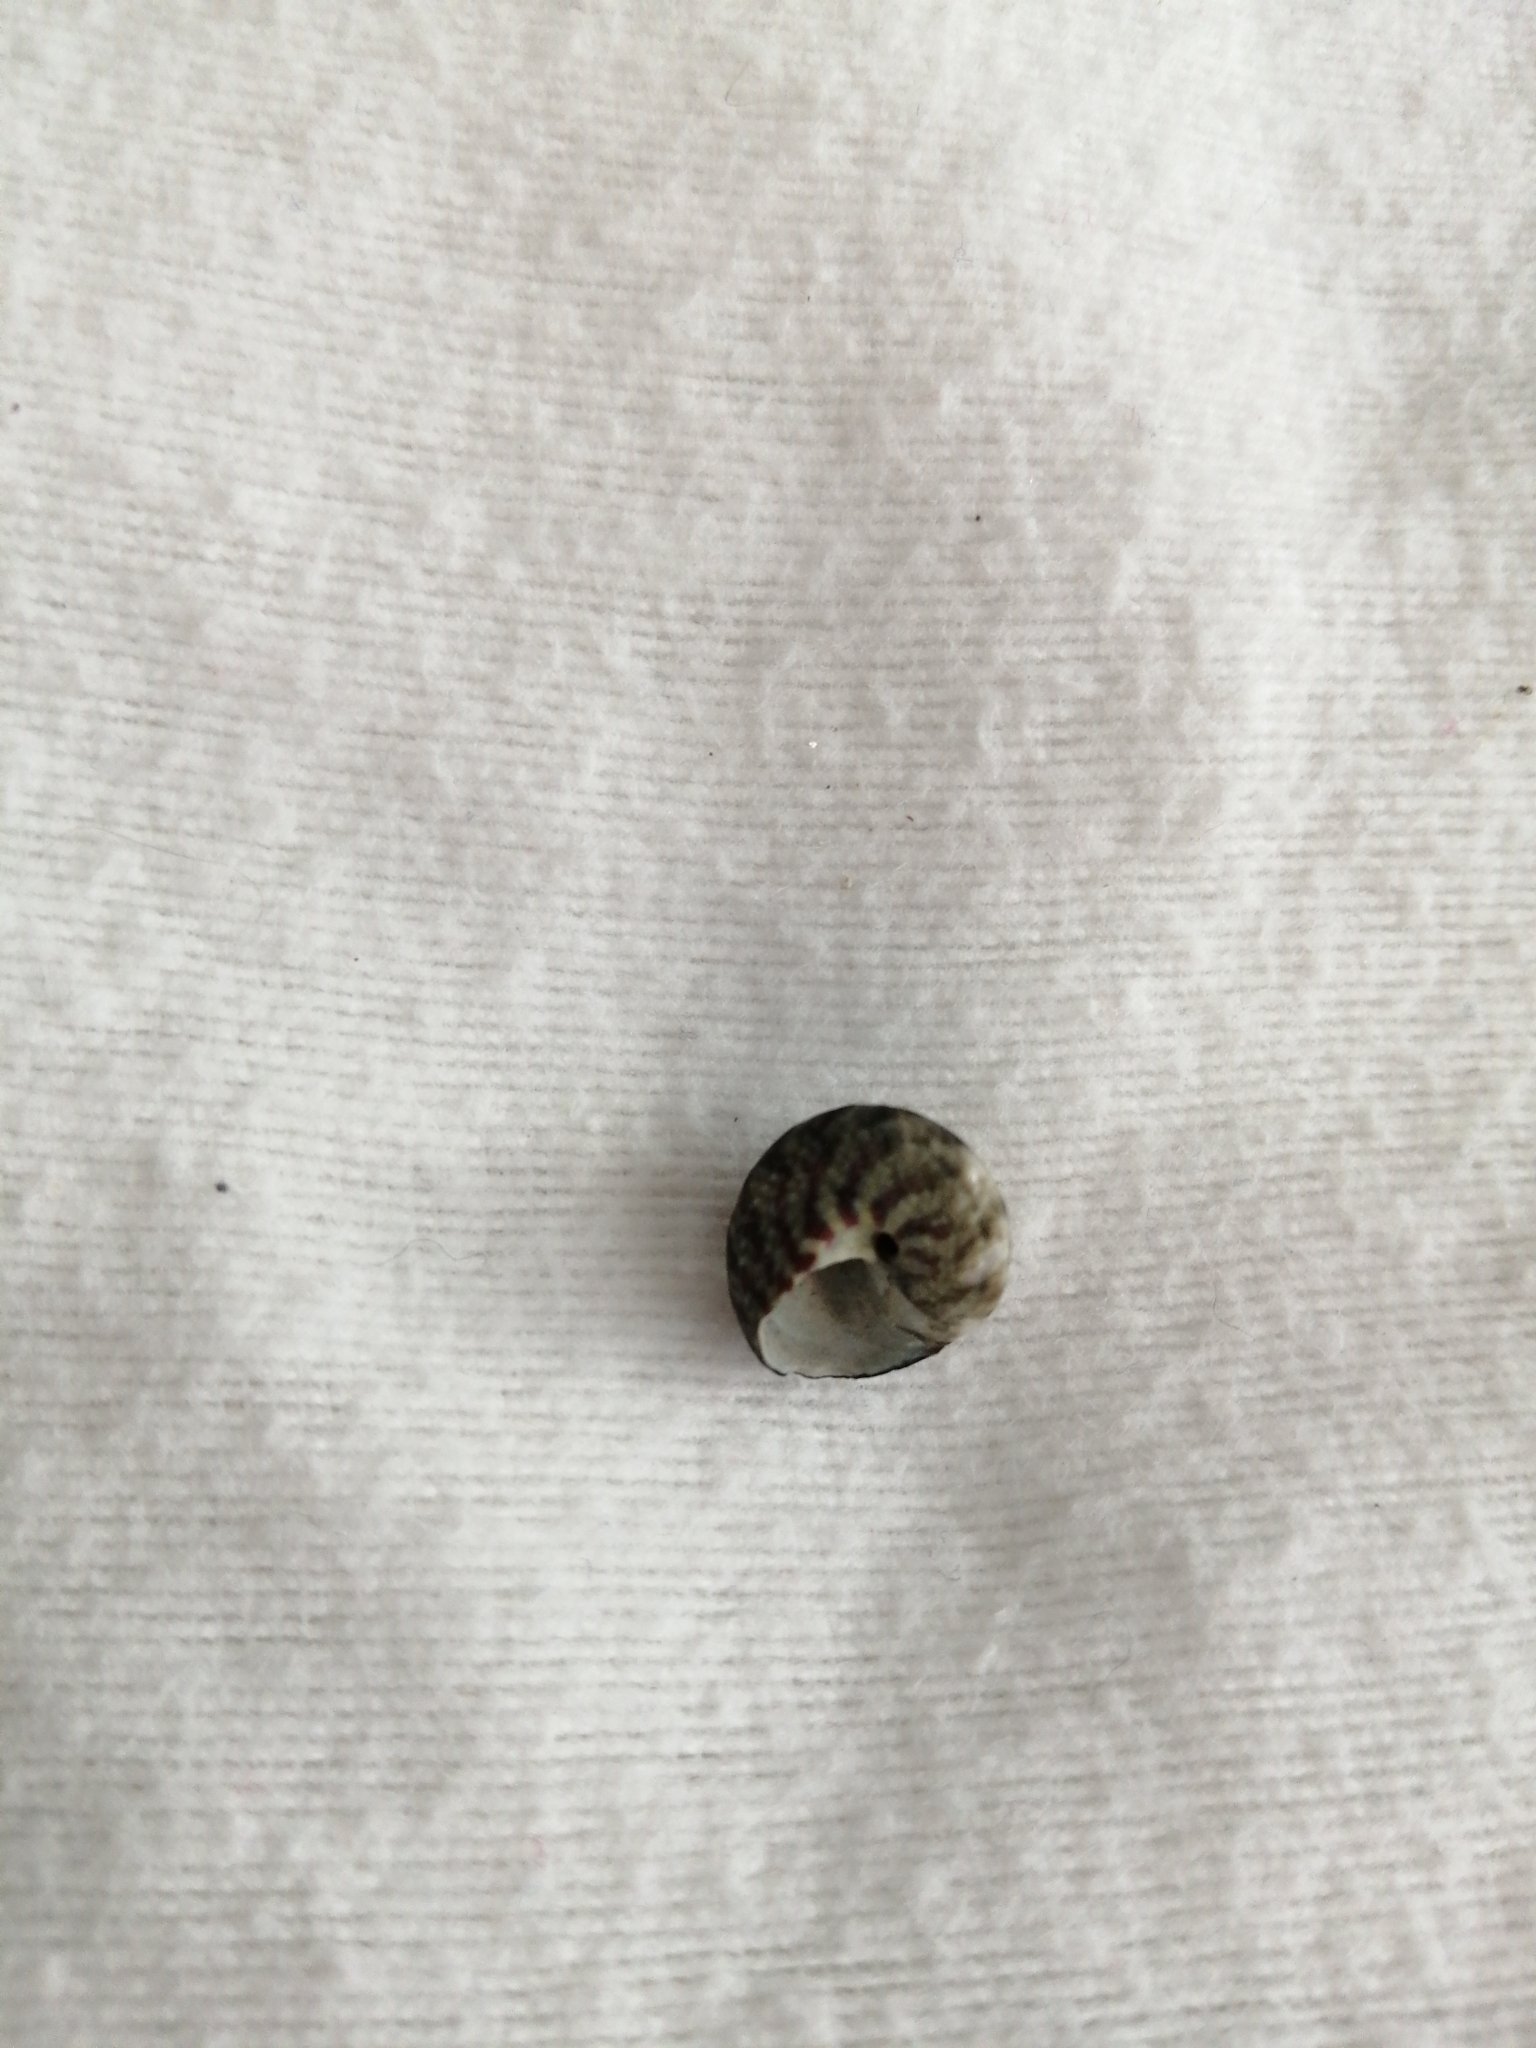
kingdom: Animalia
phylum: Mollusca
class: Gastropoda
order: Trochida
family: Trochidae
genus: Steromphala
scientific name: Steromphala umbilicalis
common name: Flat top shell
